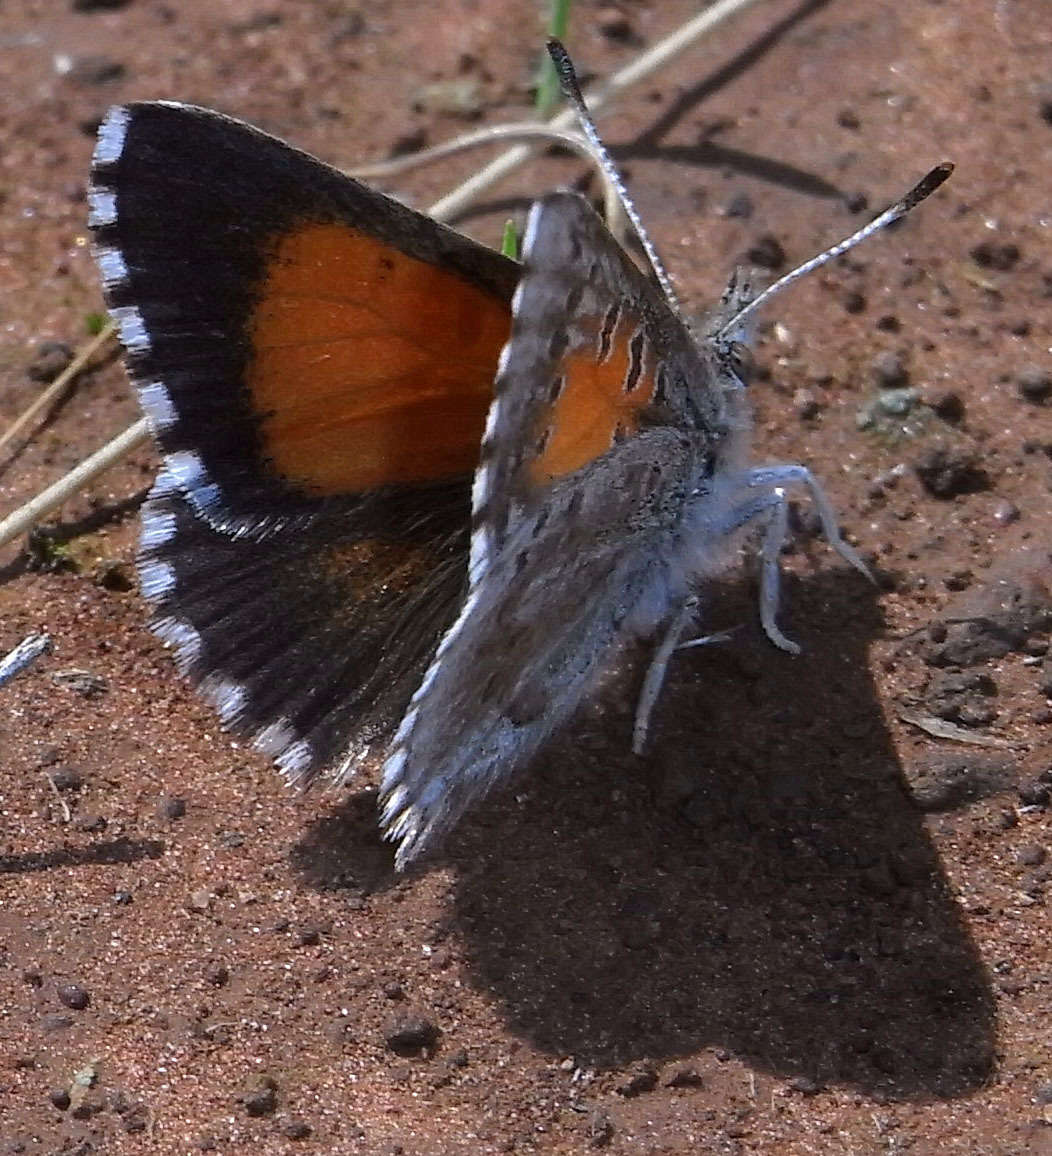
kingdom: Animalia
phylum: Arthropoda
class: Insecta
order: Lepidoptera
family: Lycaenidae
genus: Lucia
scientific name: Lucia limbaria
